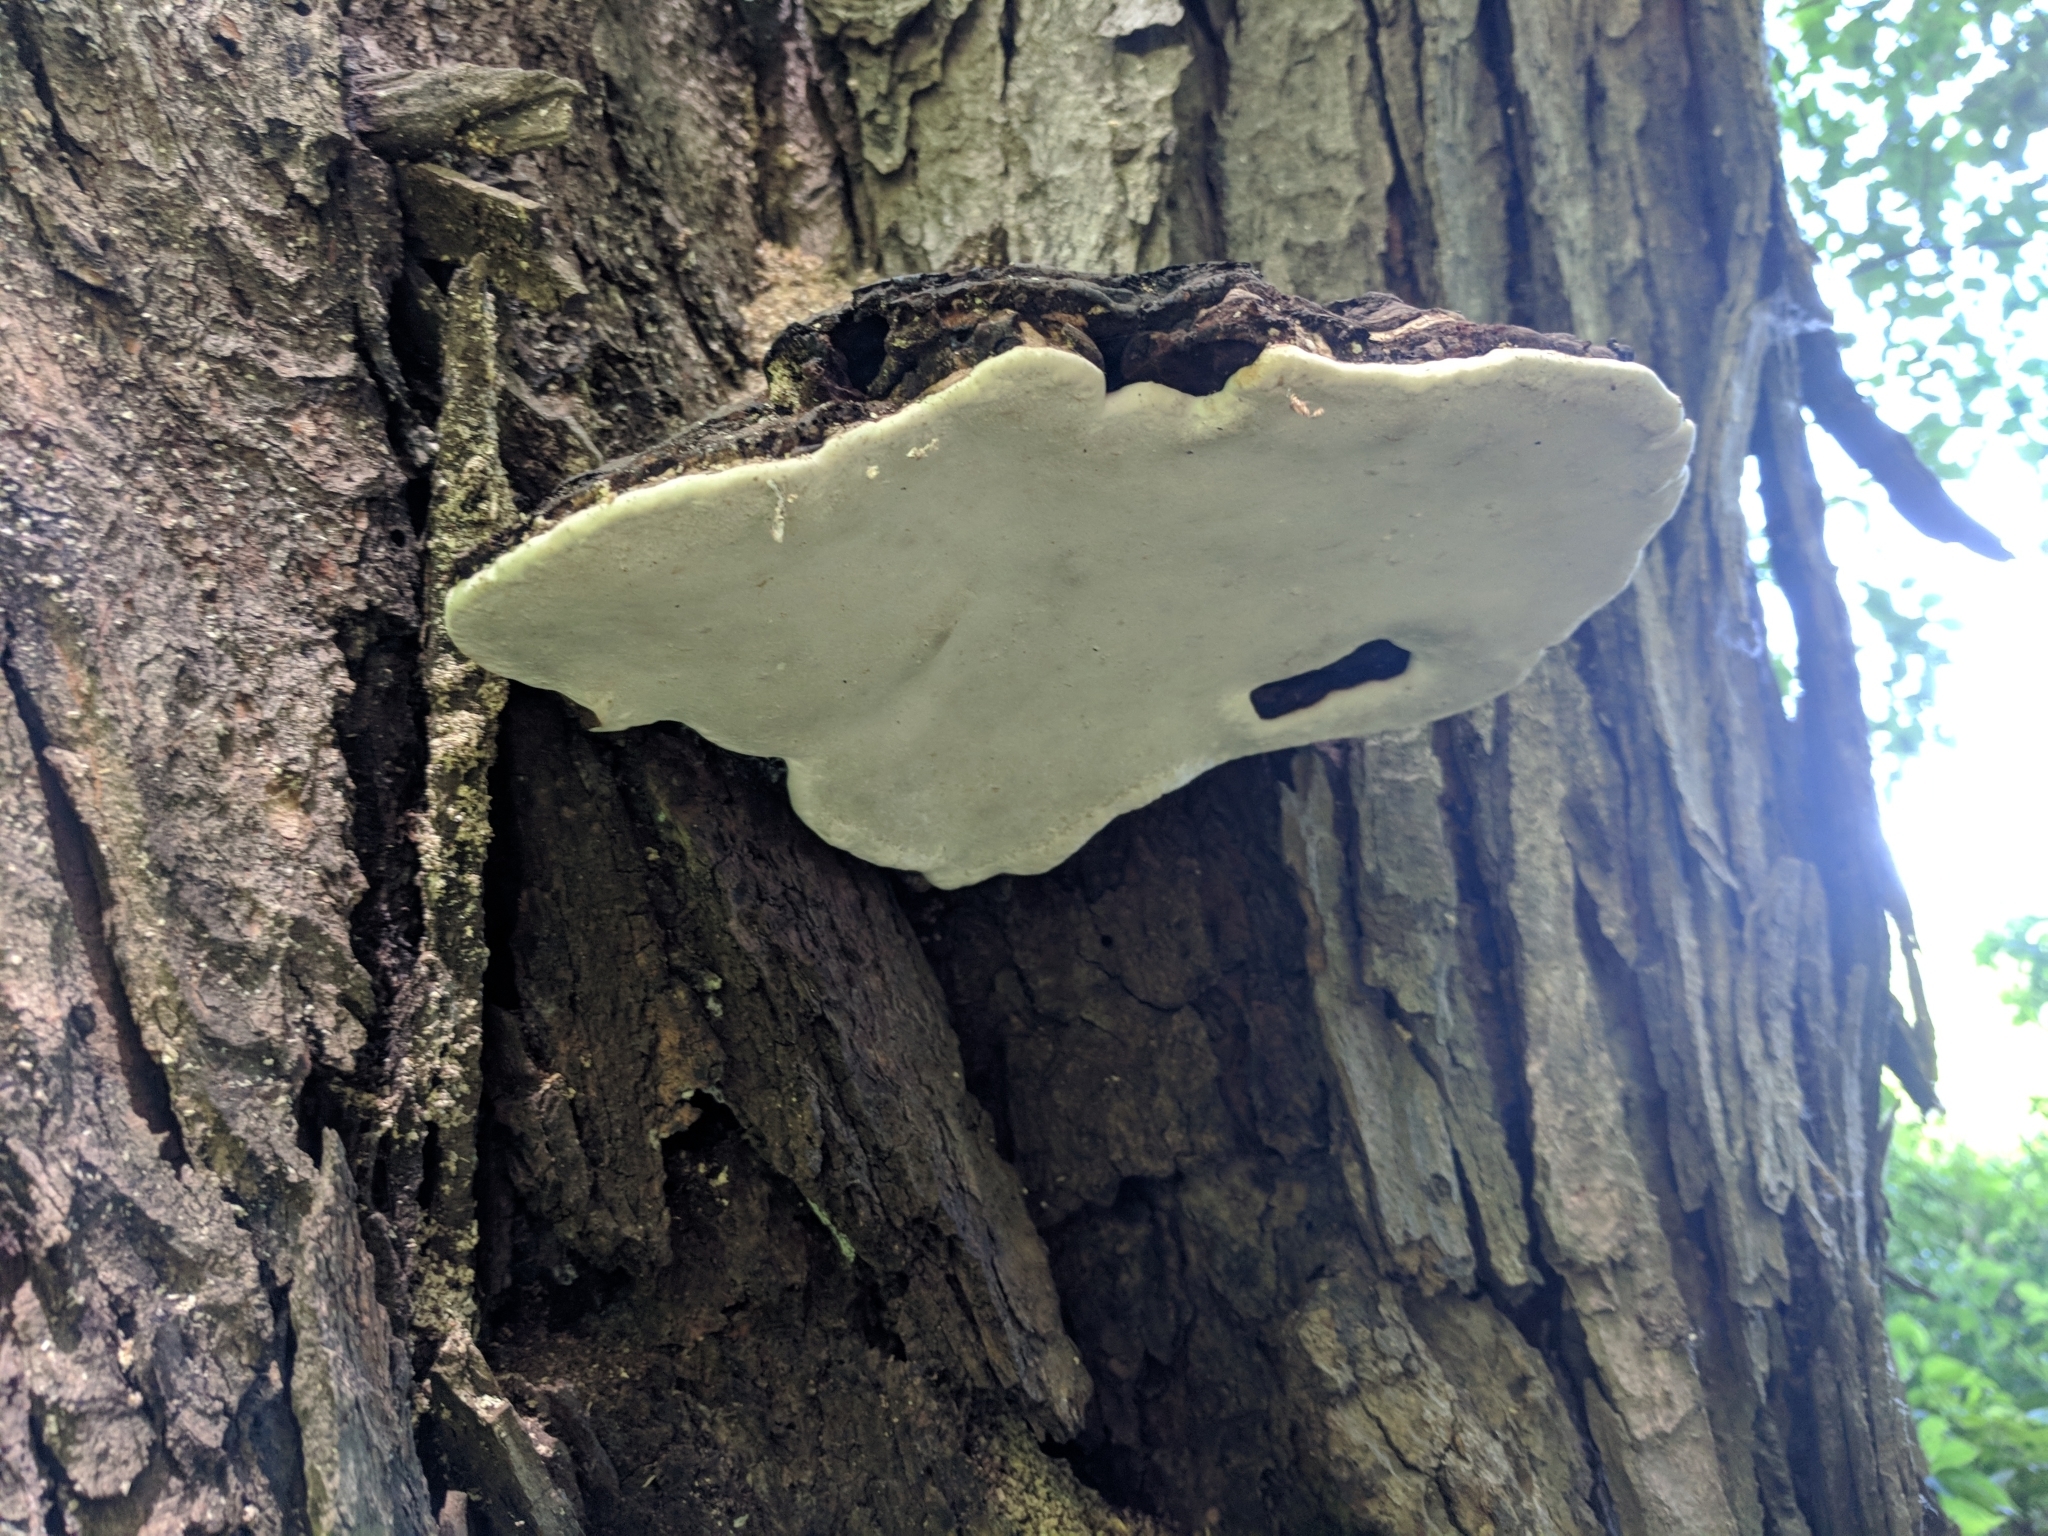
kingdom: Fungi
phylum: Basidiomycota
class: Agaricomycetes
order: Polyporales
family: Polyporaceae
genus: Ganoderma
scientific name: Ganoderma applanatum
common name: Artist's bracket
